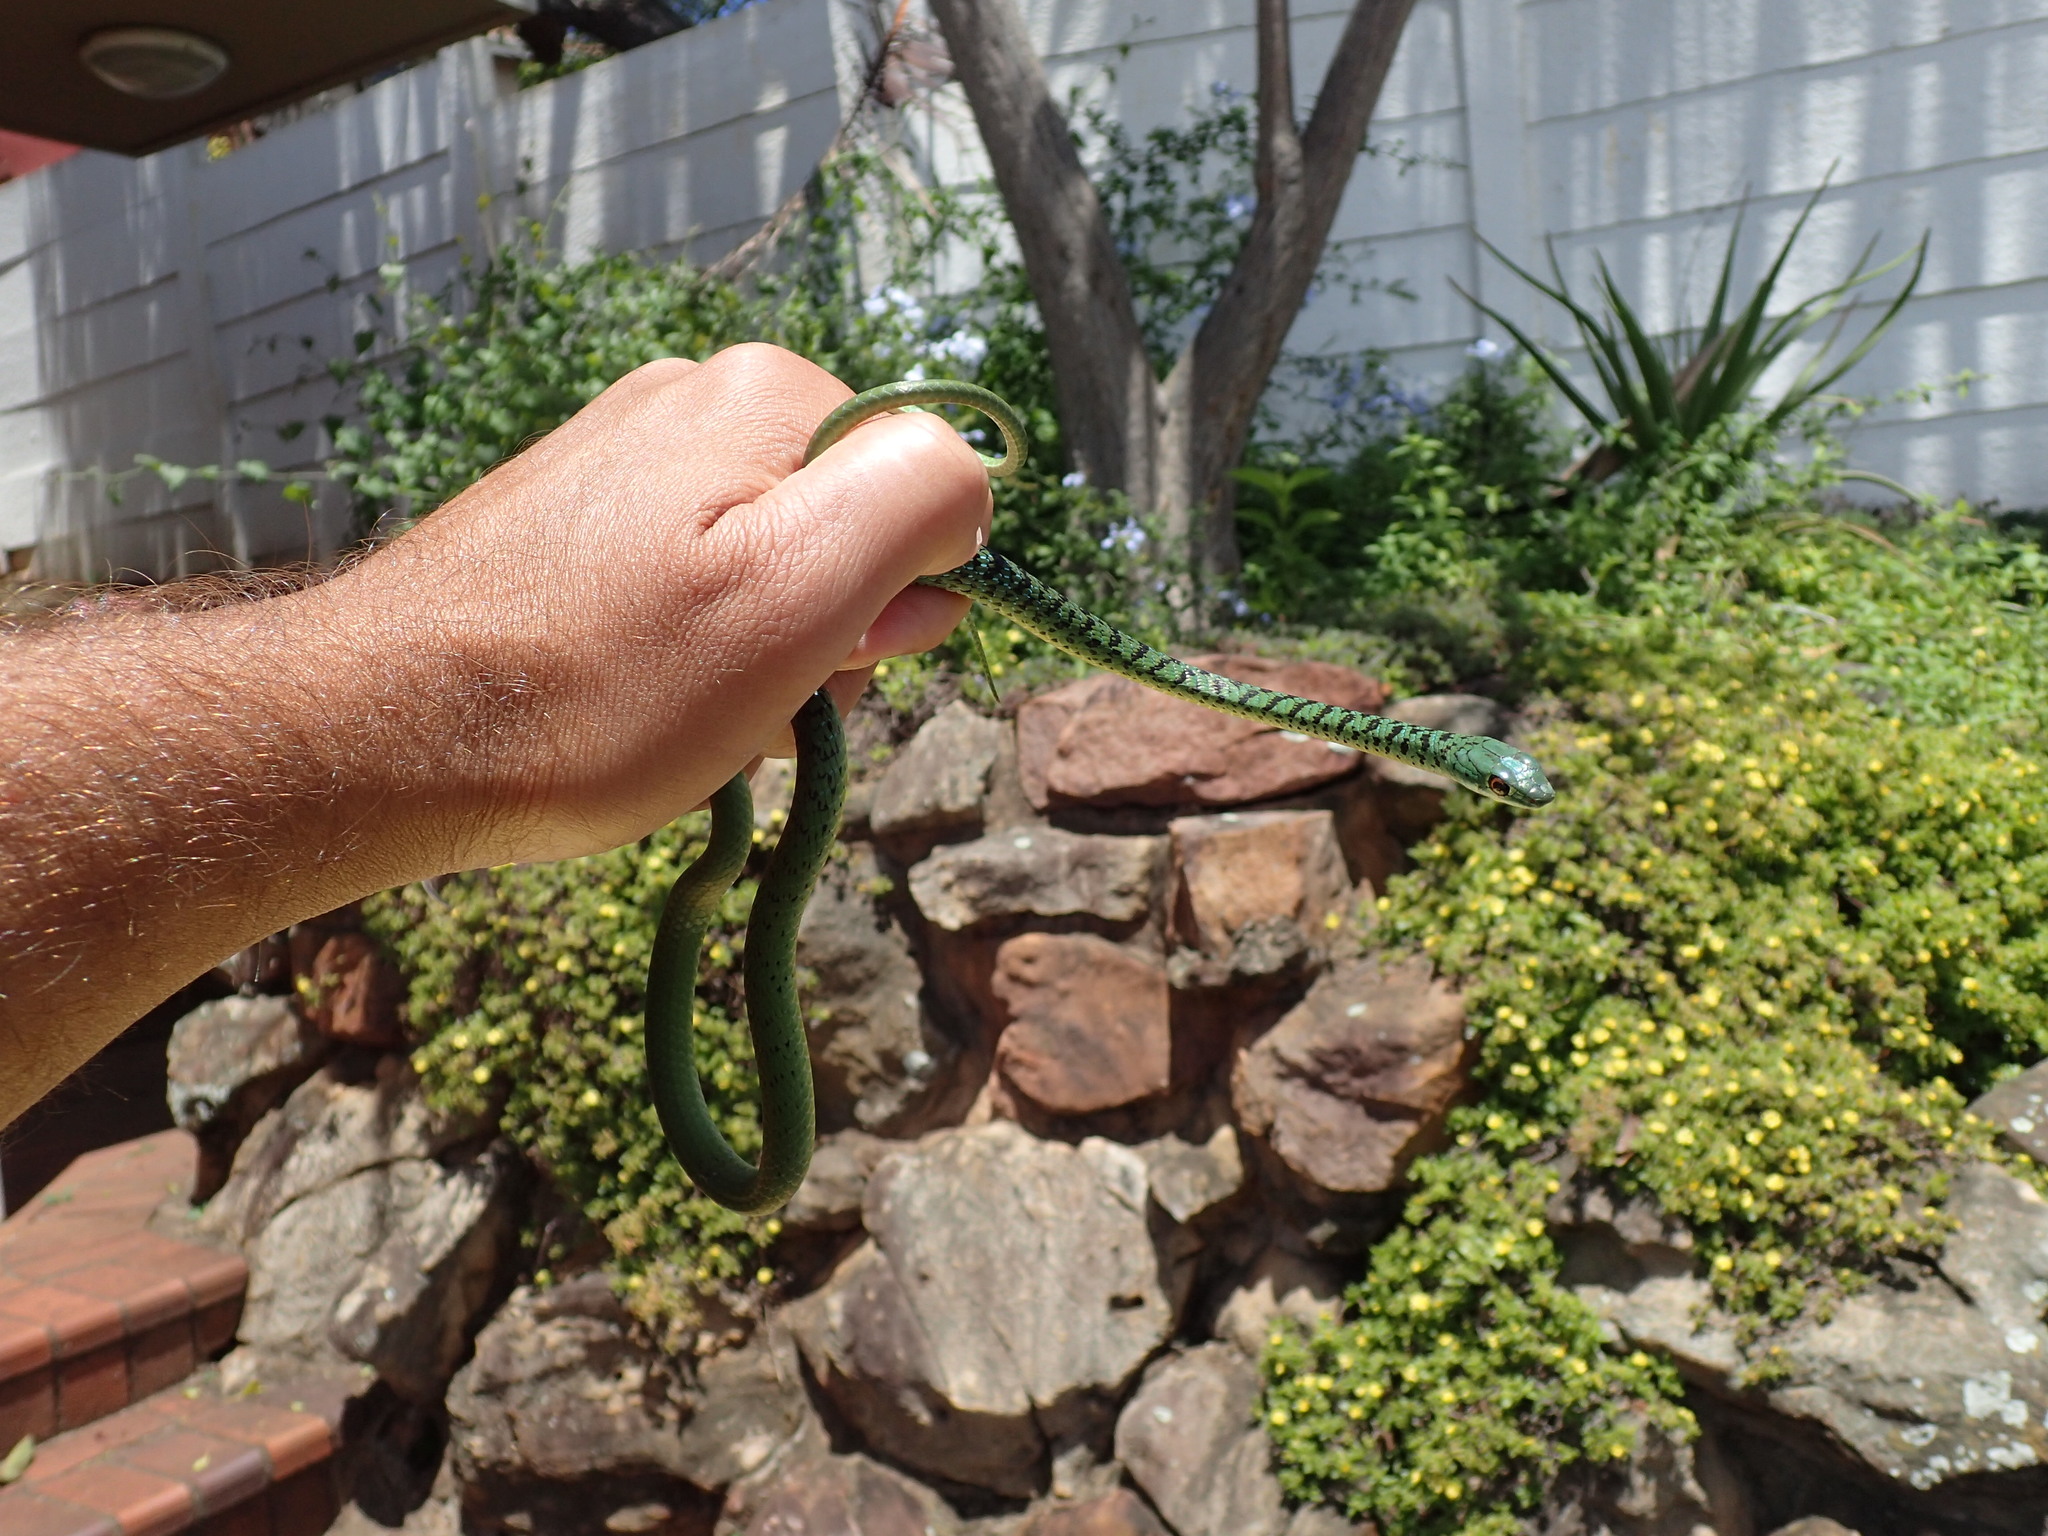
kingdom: Animalia
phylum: Chordata
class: Squamata
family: Colubridae
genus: Philothamnus
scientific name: Philothamnus semivariegatus
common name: Spotted bush snake
